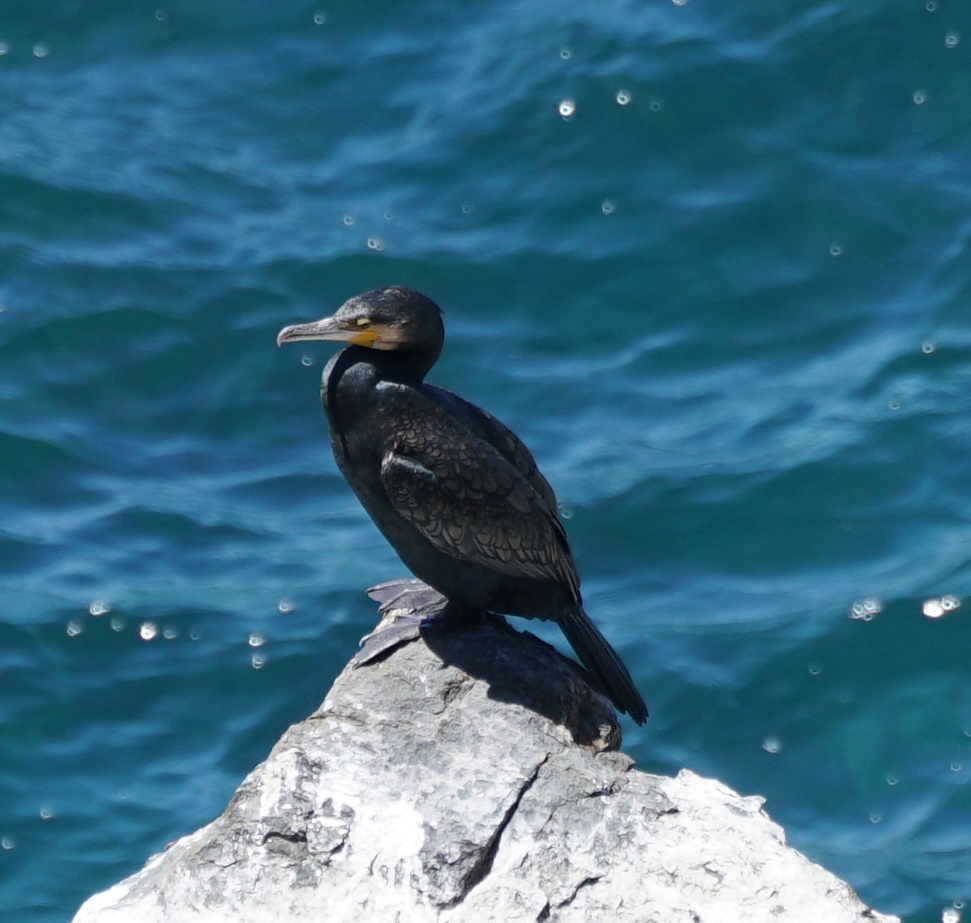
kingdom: Animalia
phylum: Chordata
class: Aves
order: Suliformes
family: Phalacrocoracidae
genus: Phalacrocorax
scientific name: Phalacrocorax carbo
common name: Great cormorant
